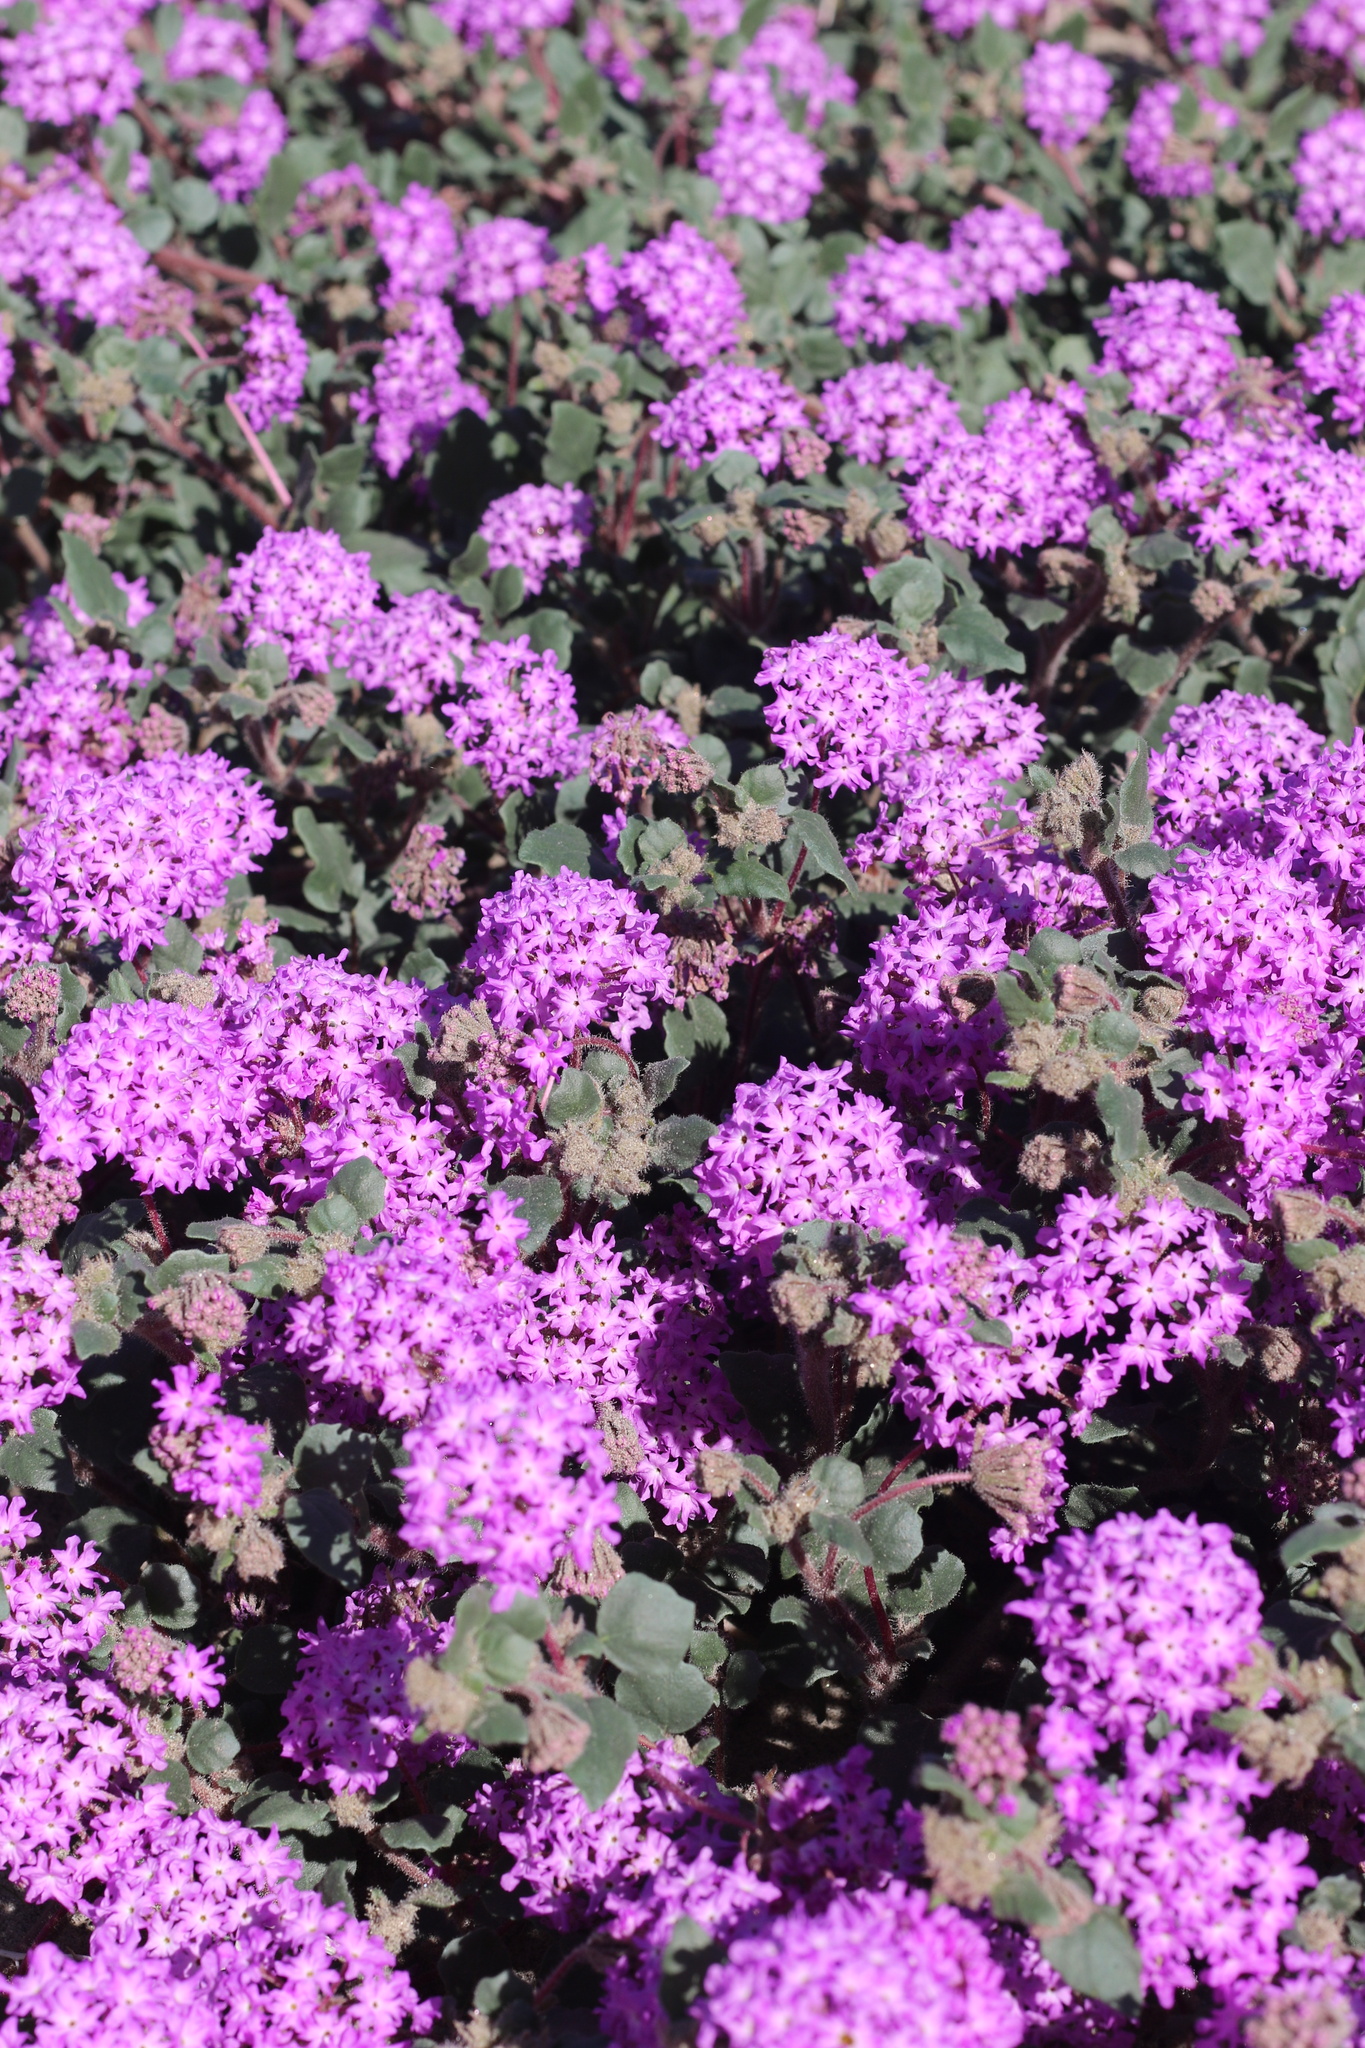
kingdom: Plantae
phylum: Tracheophyta
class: Magnoliopsida
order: Caryophyllales
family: Nyctaginaceae
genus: Abronia
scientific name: Abronia villosa
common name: Desert sand-verbena
